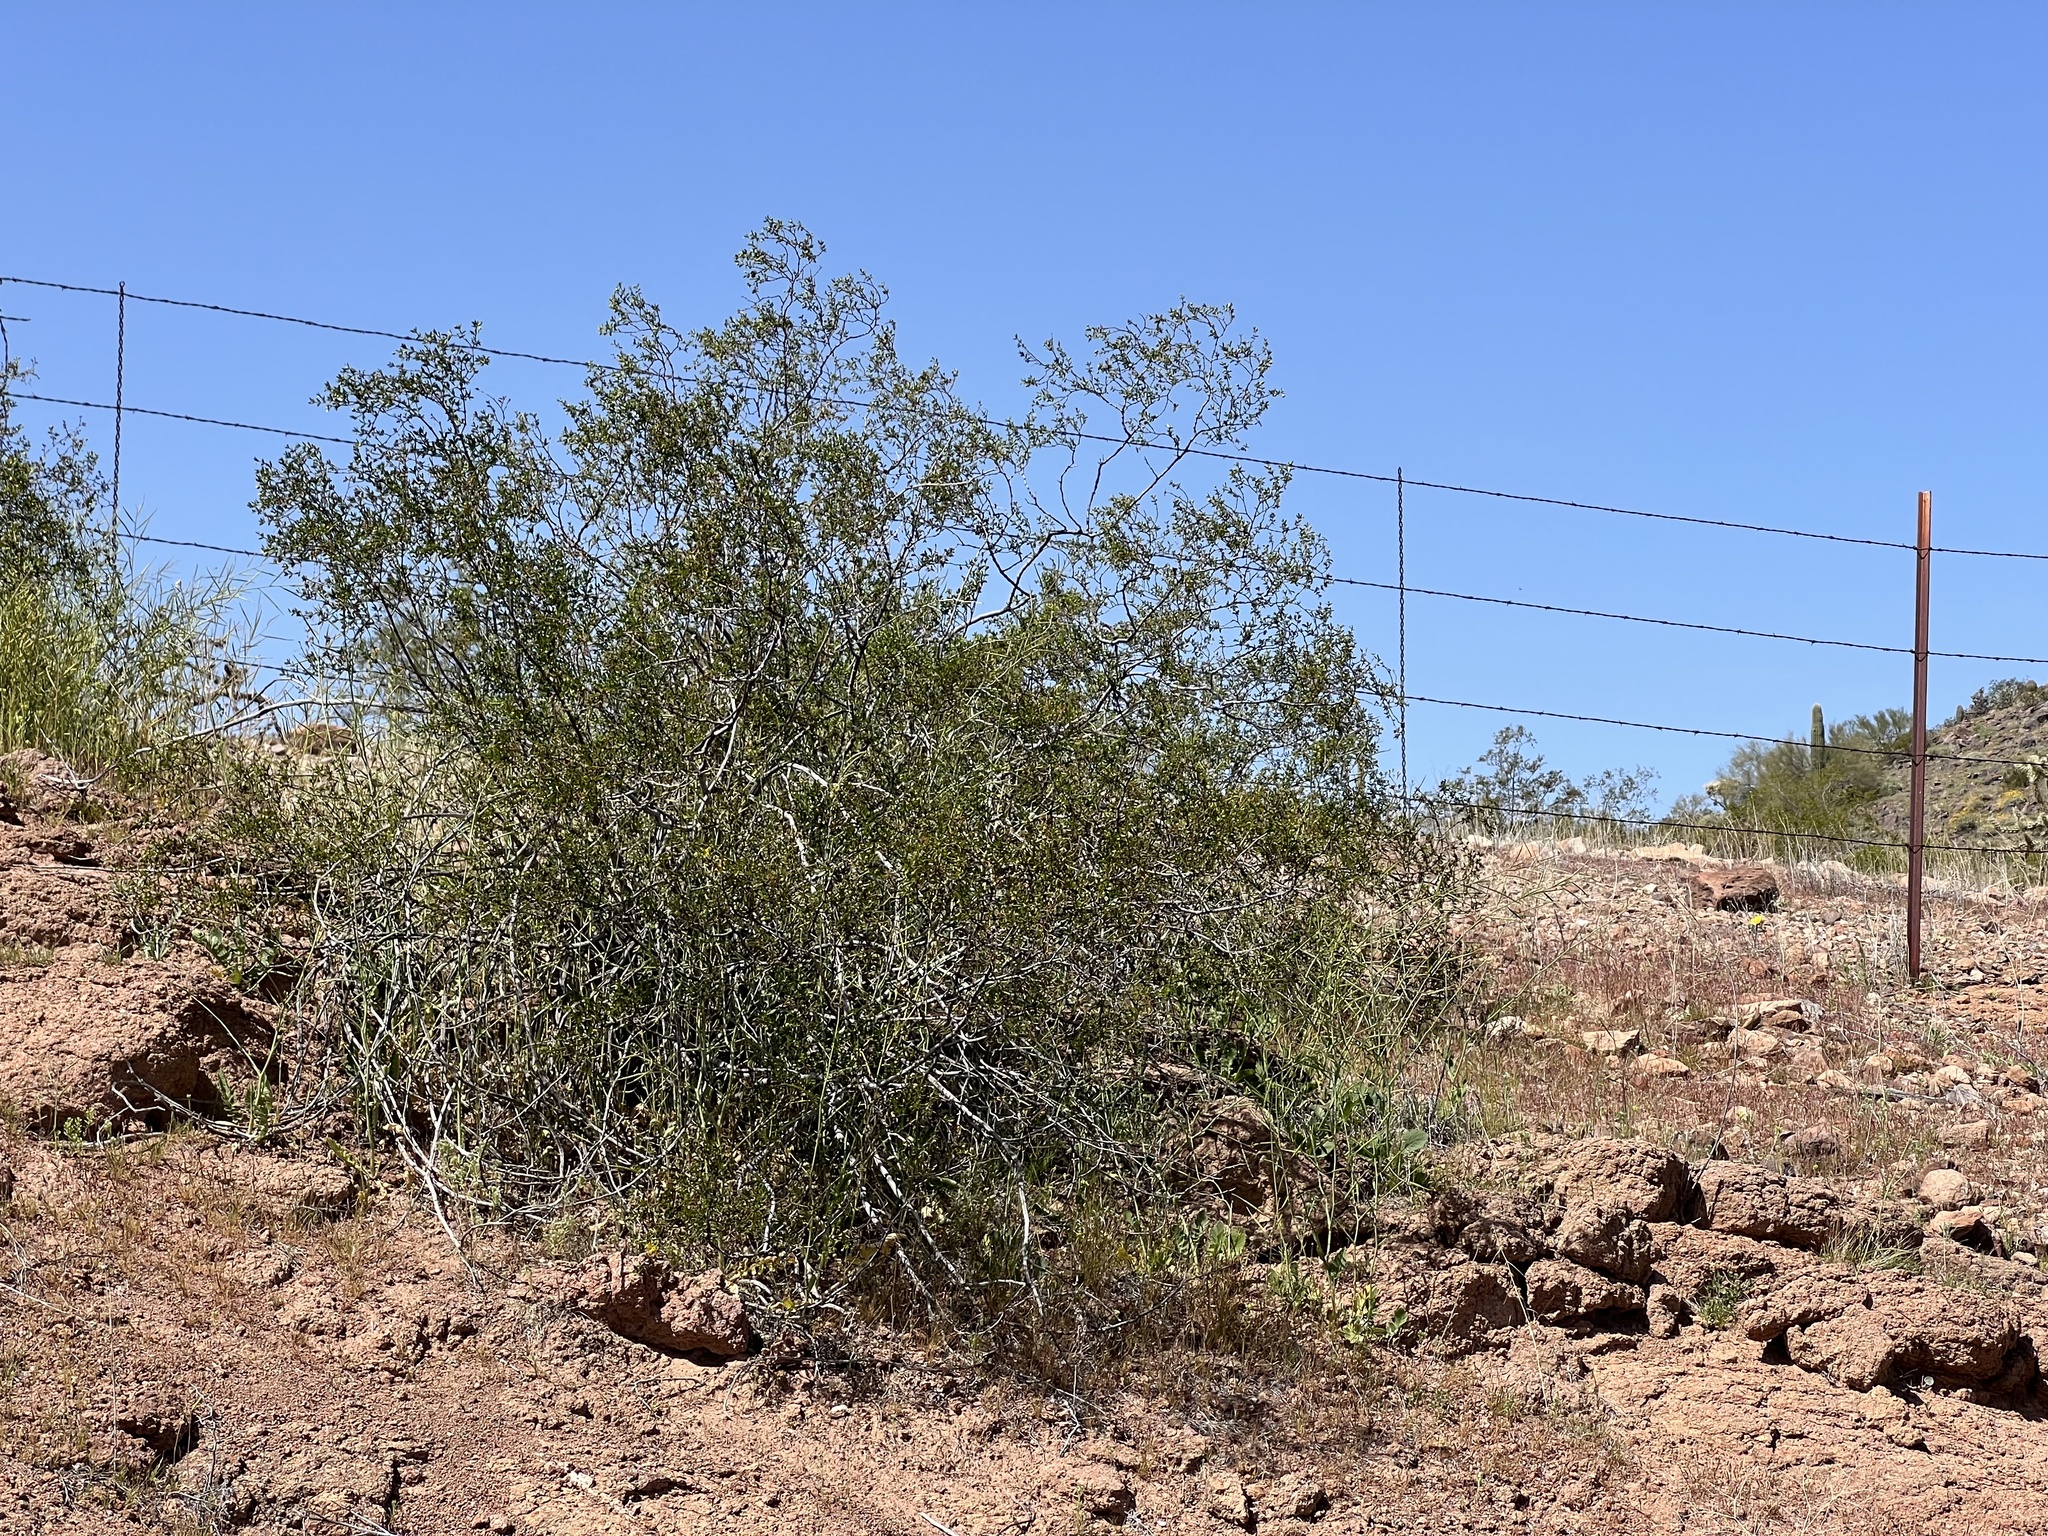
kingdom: Plantae
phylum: Tracheophyta
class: Magnoliopsida
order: Zygophyllales
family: Zygophyllaceae
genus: Larrea
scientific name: Larrea tridentata
